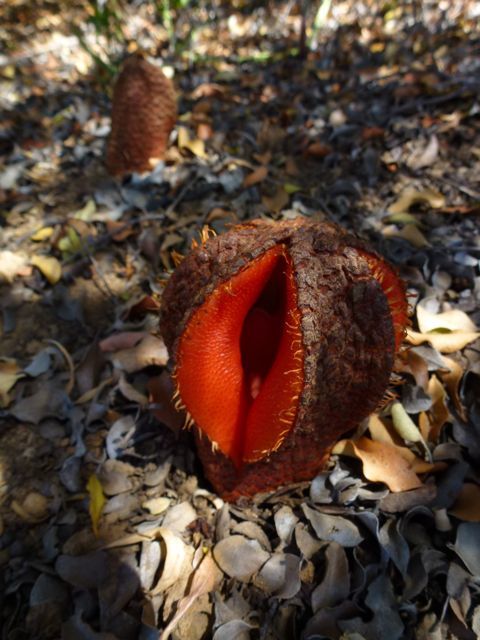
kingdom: Plantae
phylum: Tracheophyta
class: Magnoliopsida
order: Piperales
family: Hydnoraceae
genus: Hydnora
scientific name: Hydnora africana
